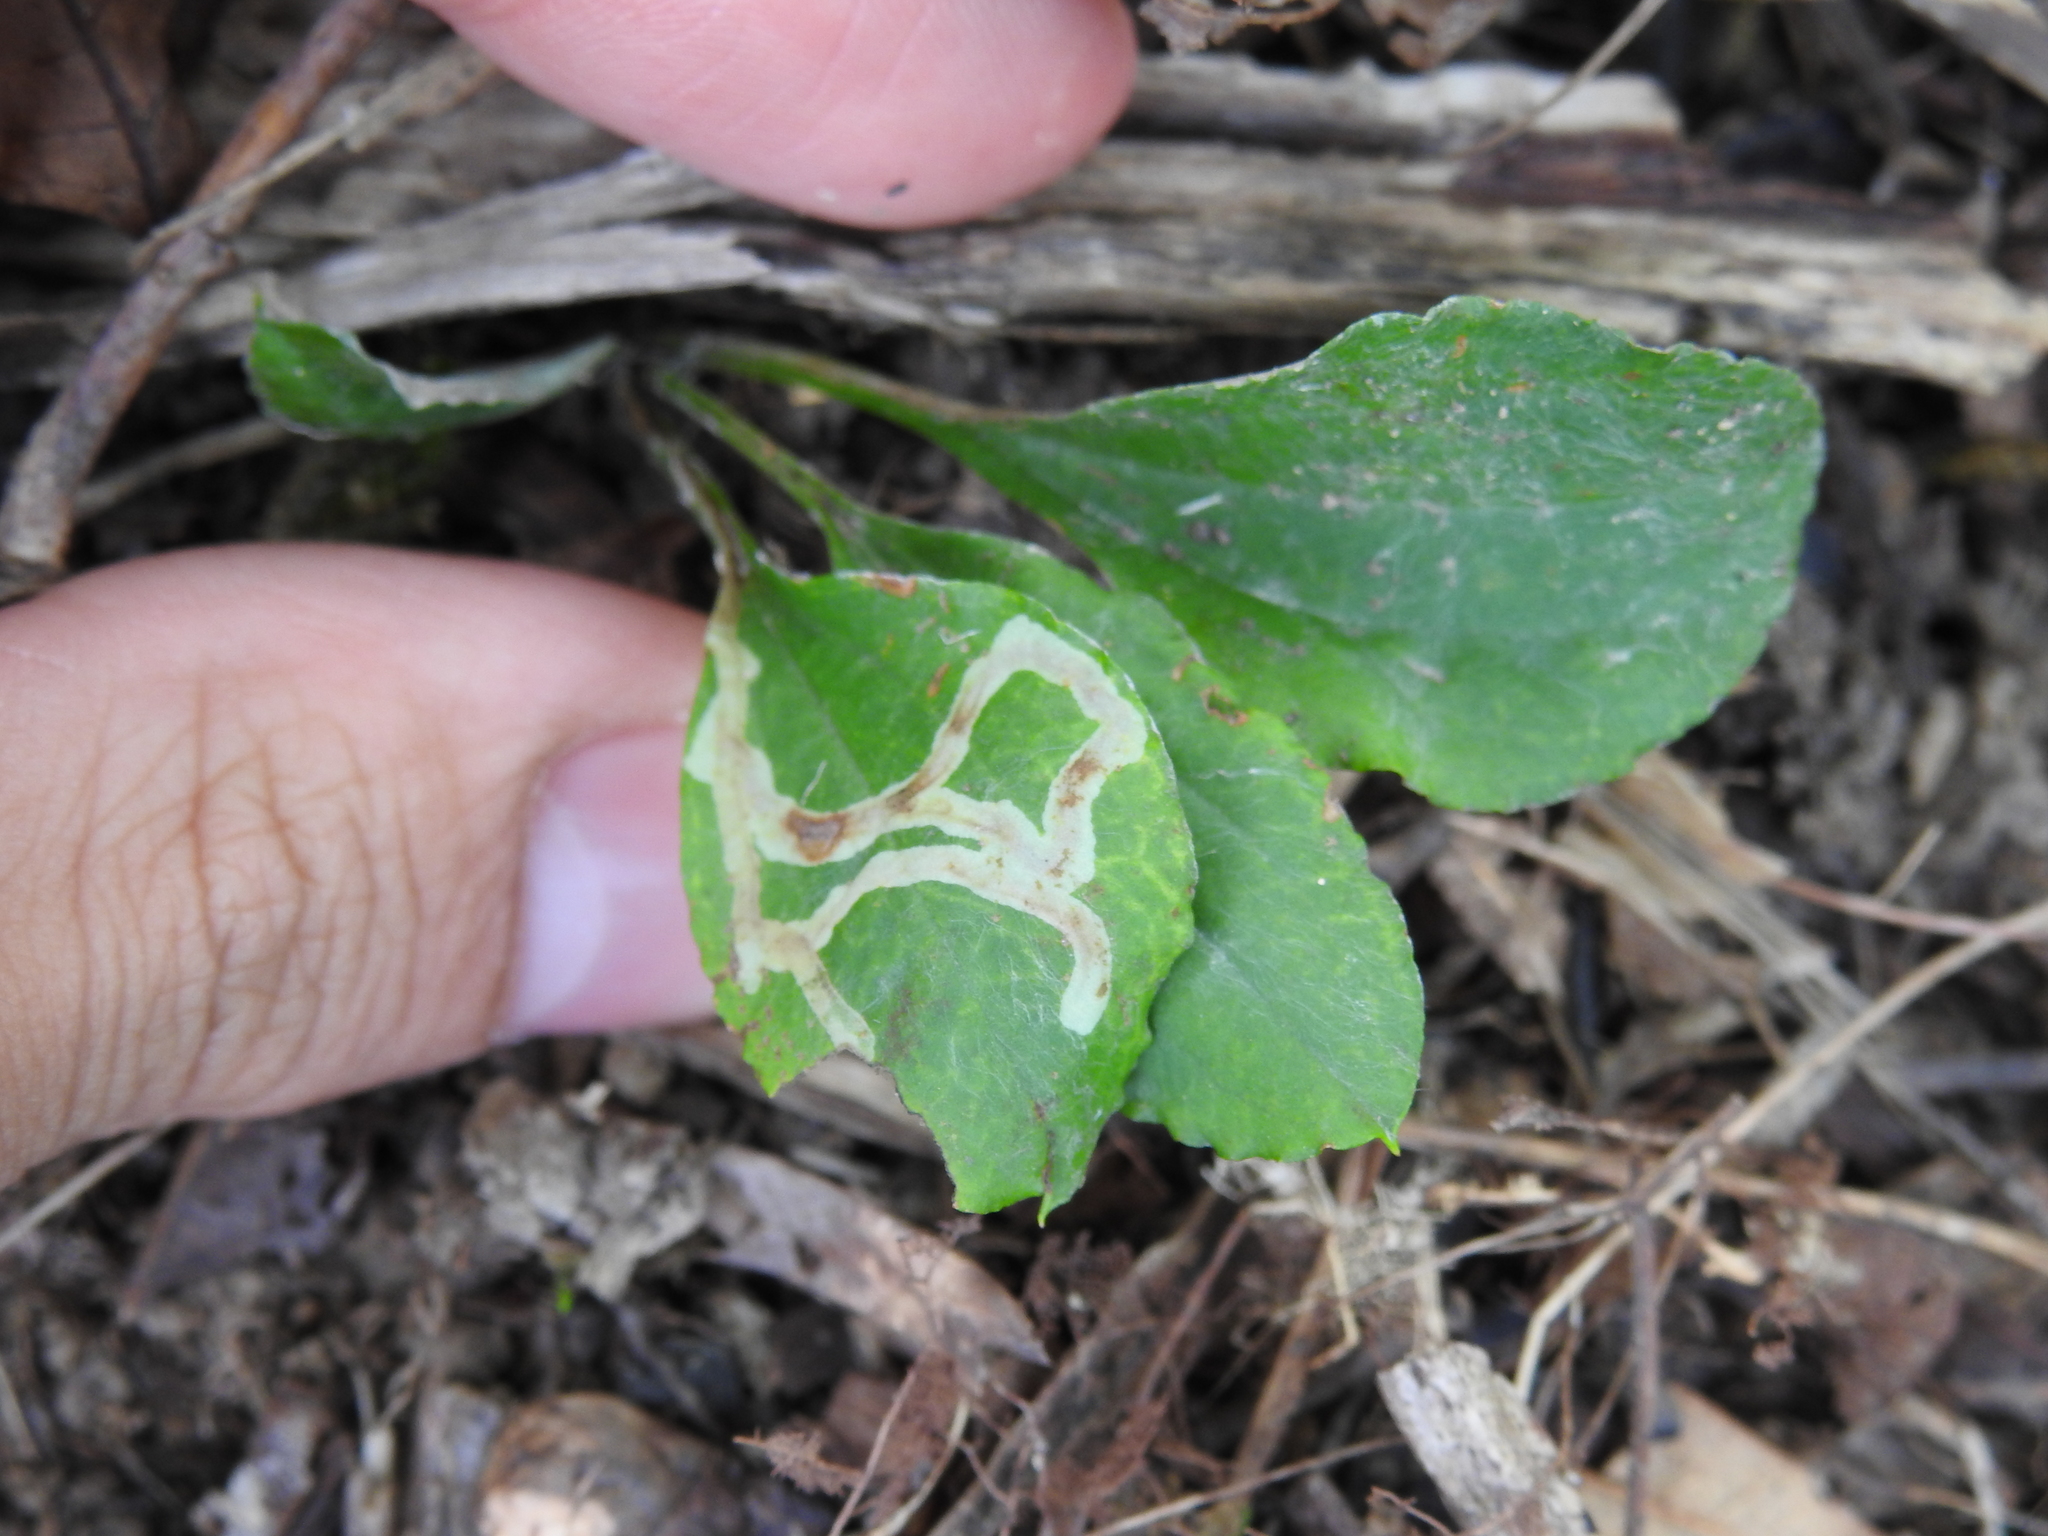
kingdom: Animalia
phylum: Arthropoda
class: Insecta
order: Diptera
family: Agromyzidae
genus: Ophiomyia
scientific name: Ophiomyia coniceps
